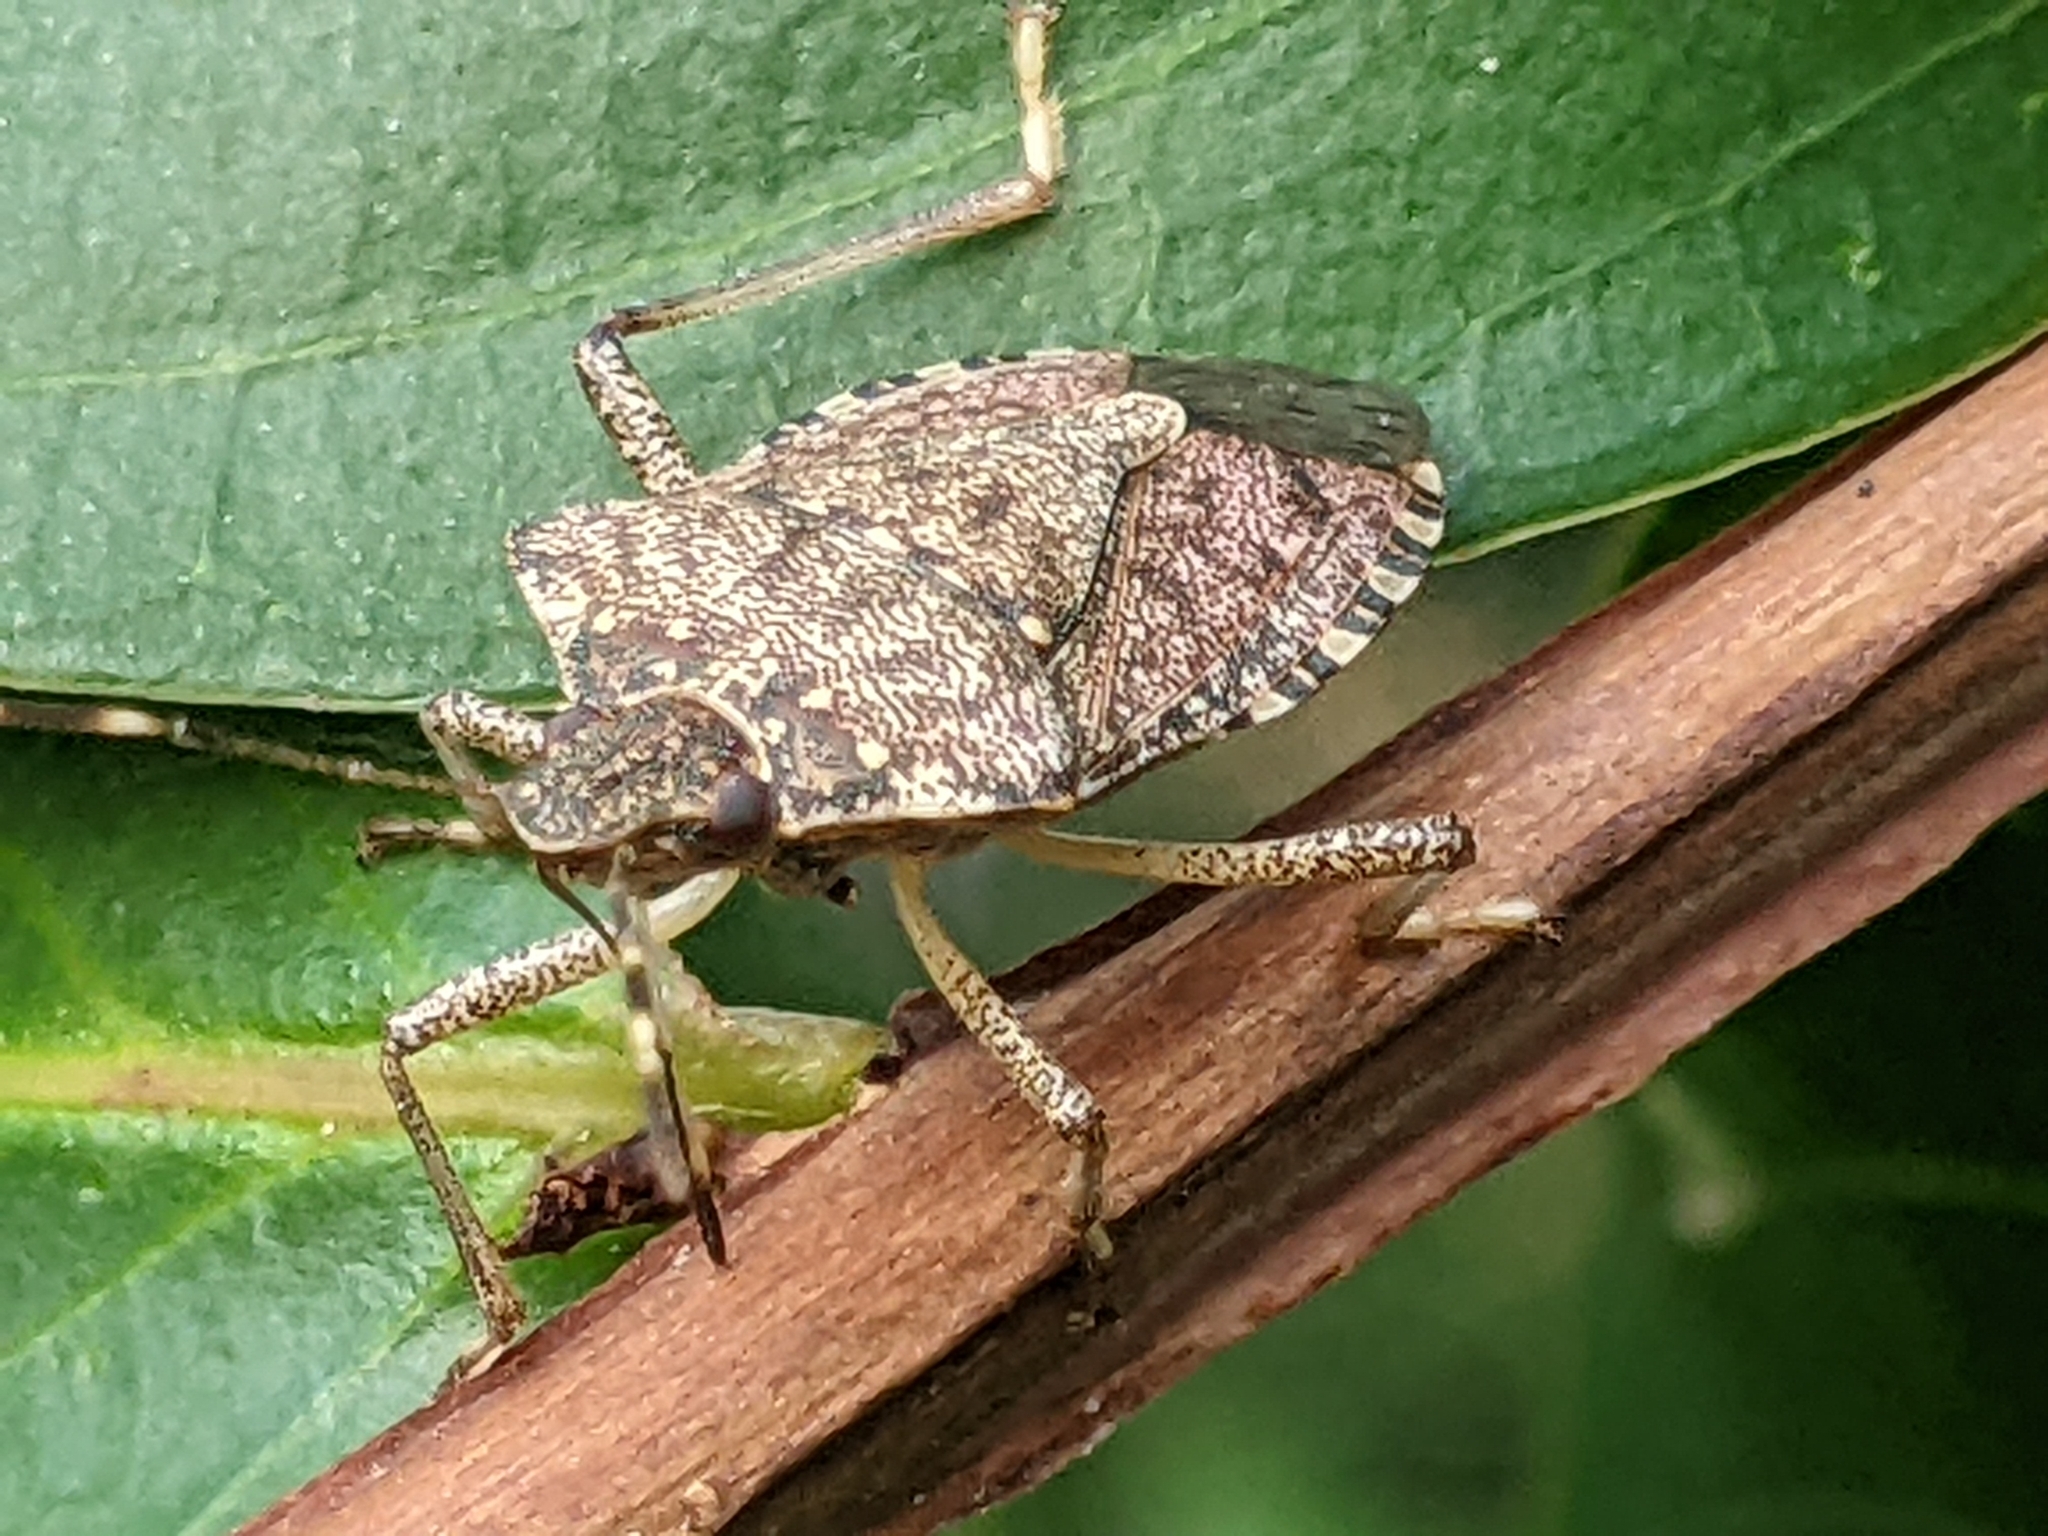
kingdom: Animalia
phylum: Arthropoda
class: Insecta
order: Hemiptera
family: Pentatomidae
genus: Halyomorpha
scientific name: Halyomorpha halys
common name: Brown marmorated stink bug
